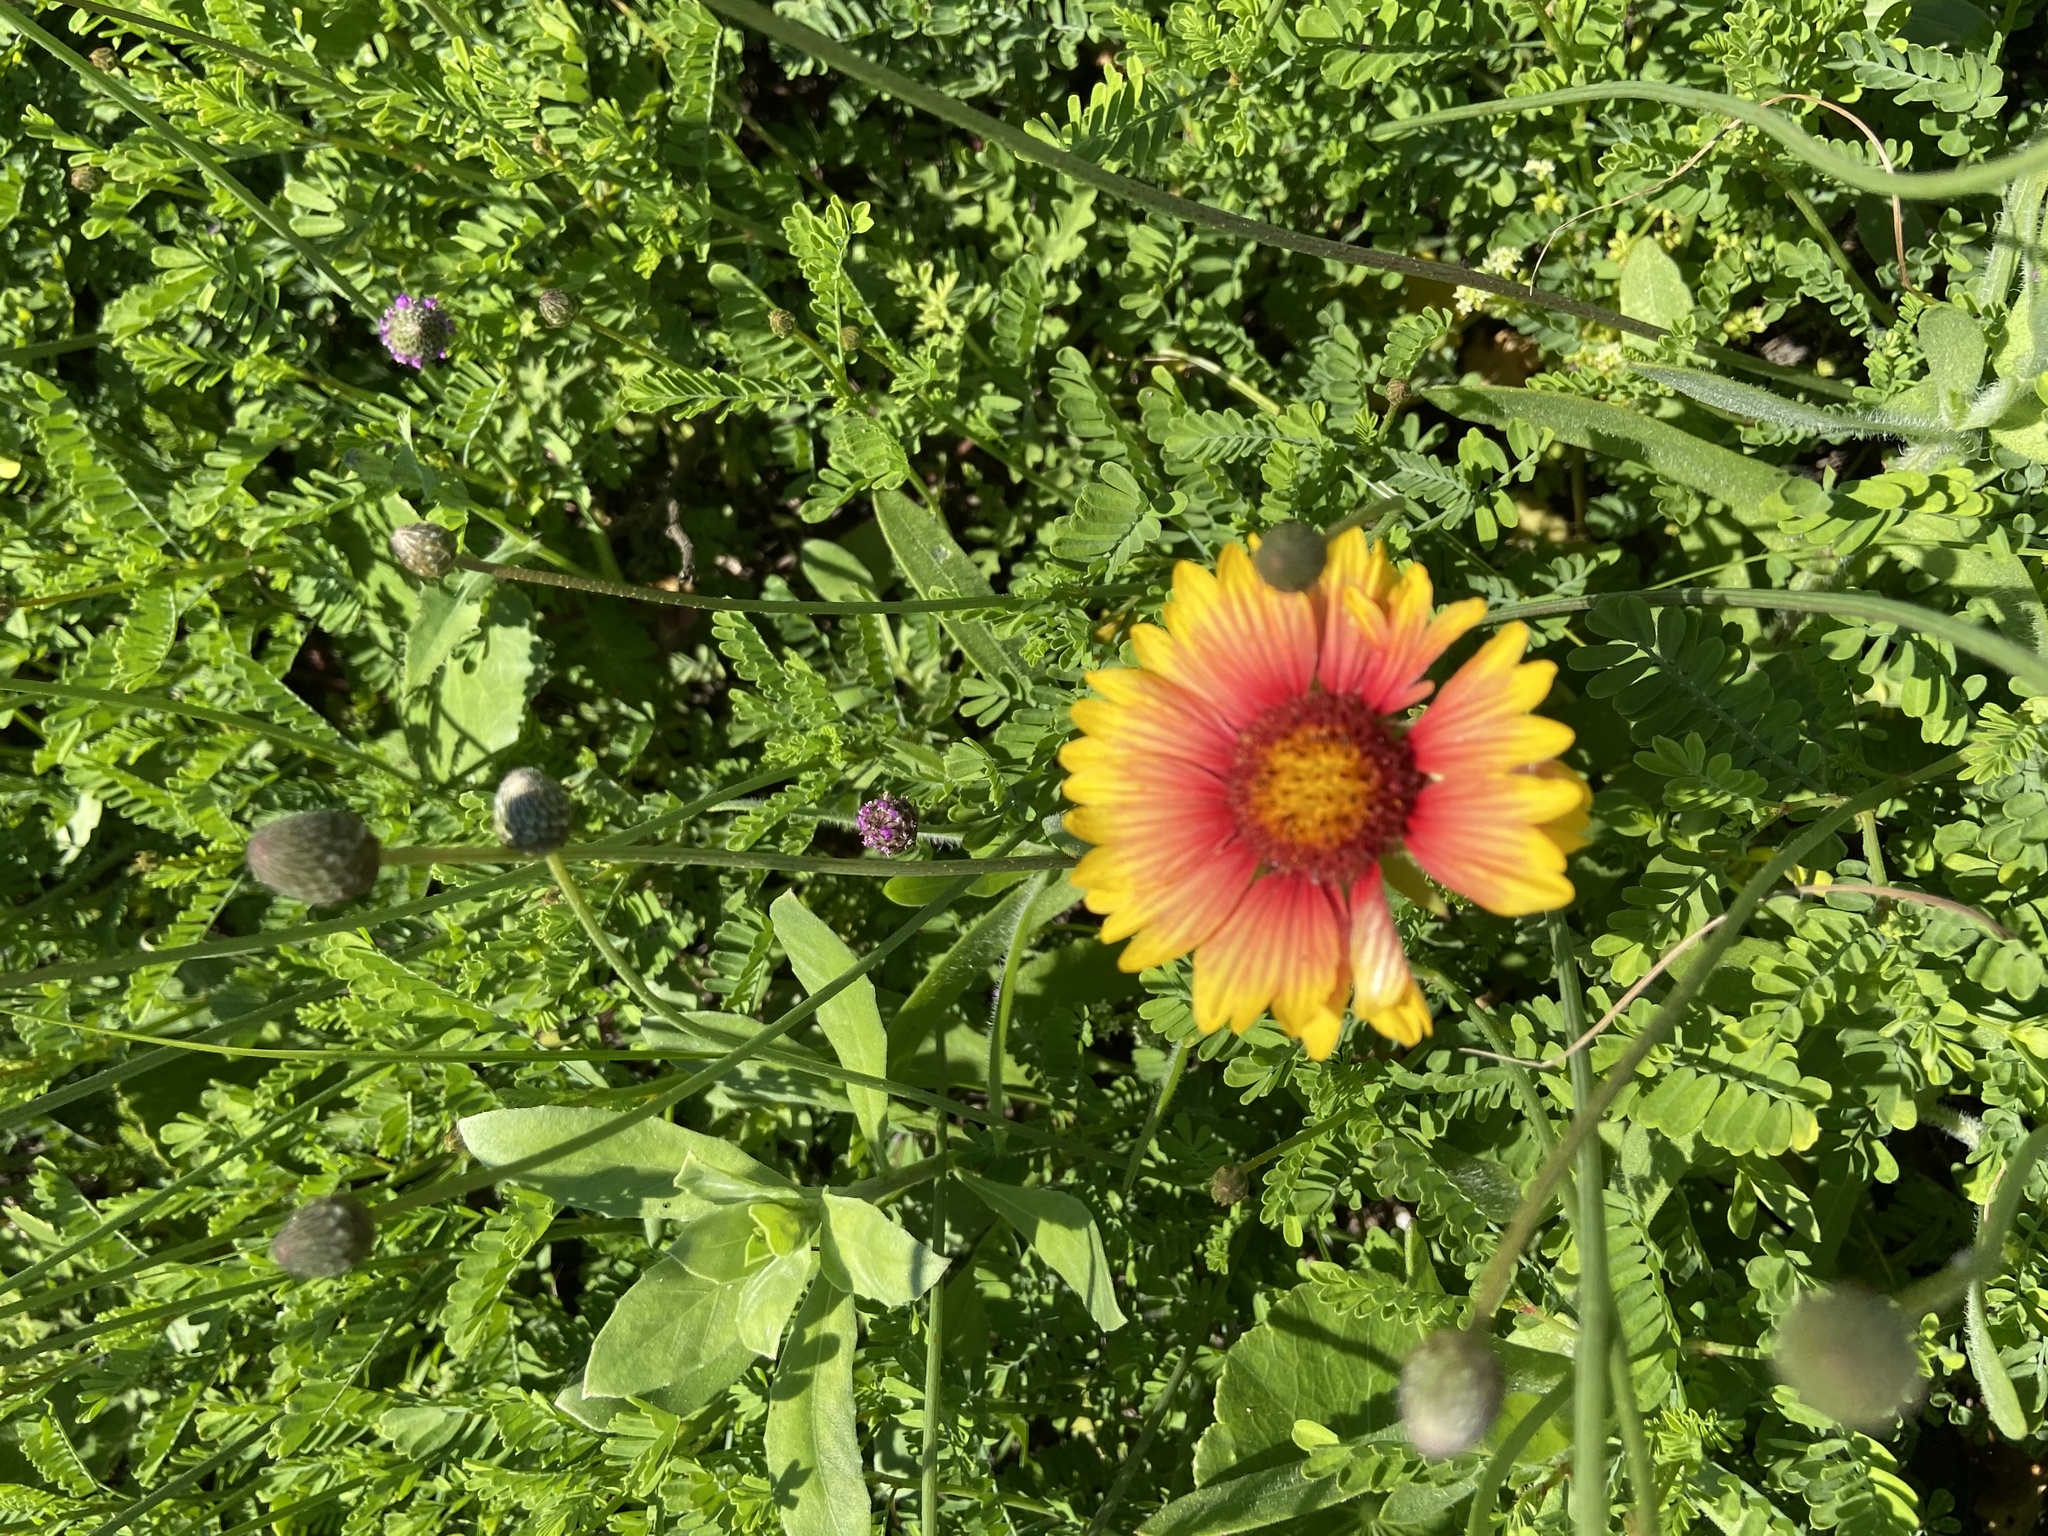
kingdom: Plantae
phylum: Tracheophyta
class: Magnoliopsida
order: Asterales
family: Asteraceae
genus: Gaillardia
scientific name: Gaillardia pulchella
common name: Firewheel
